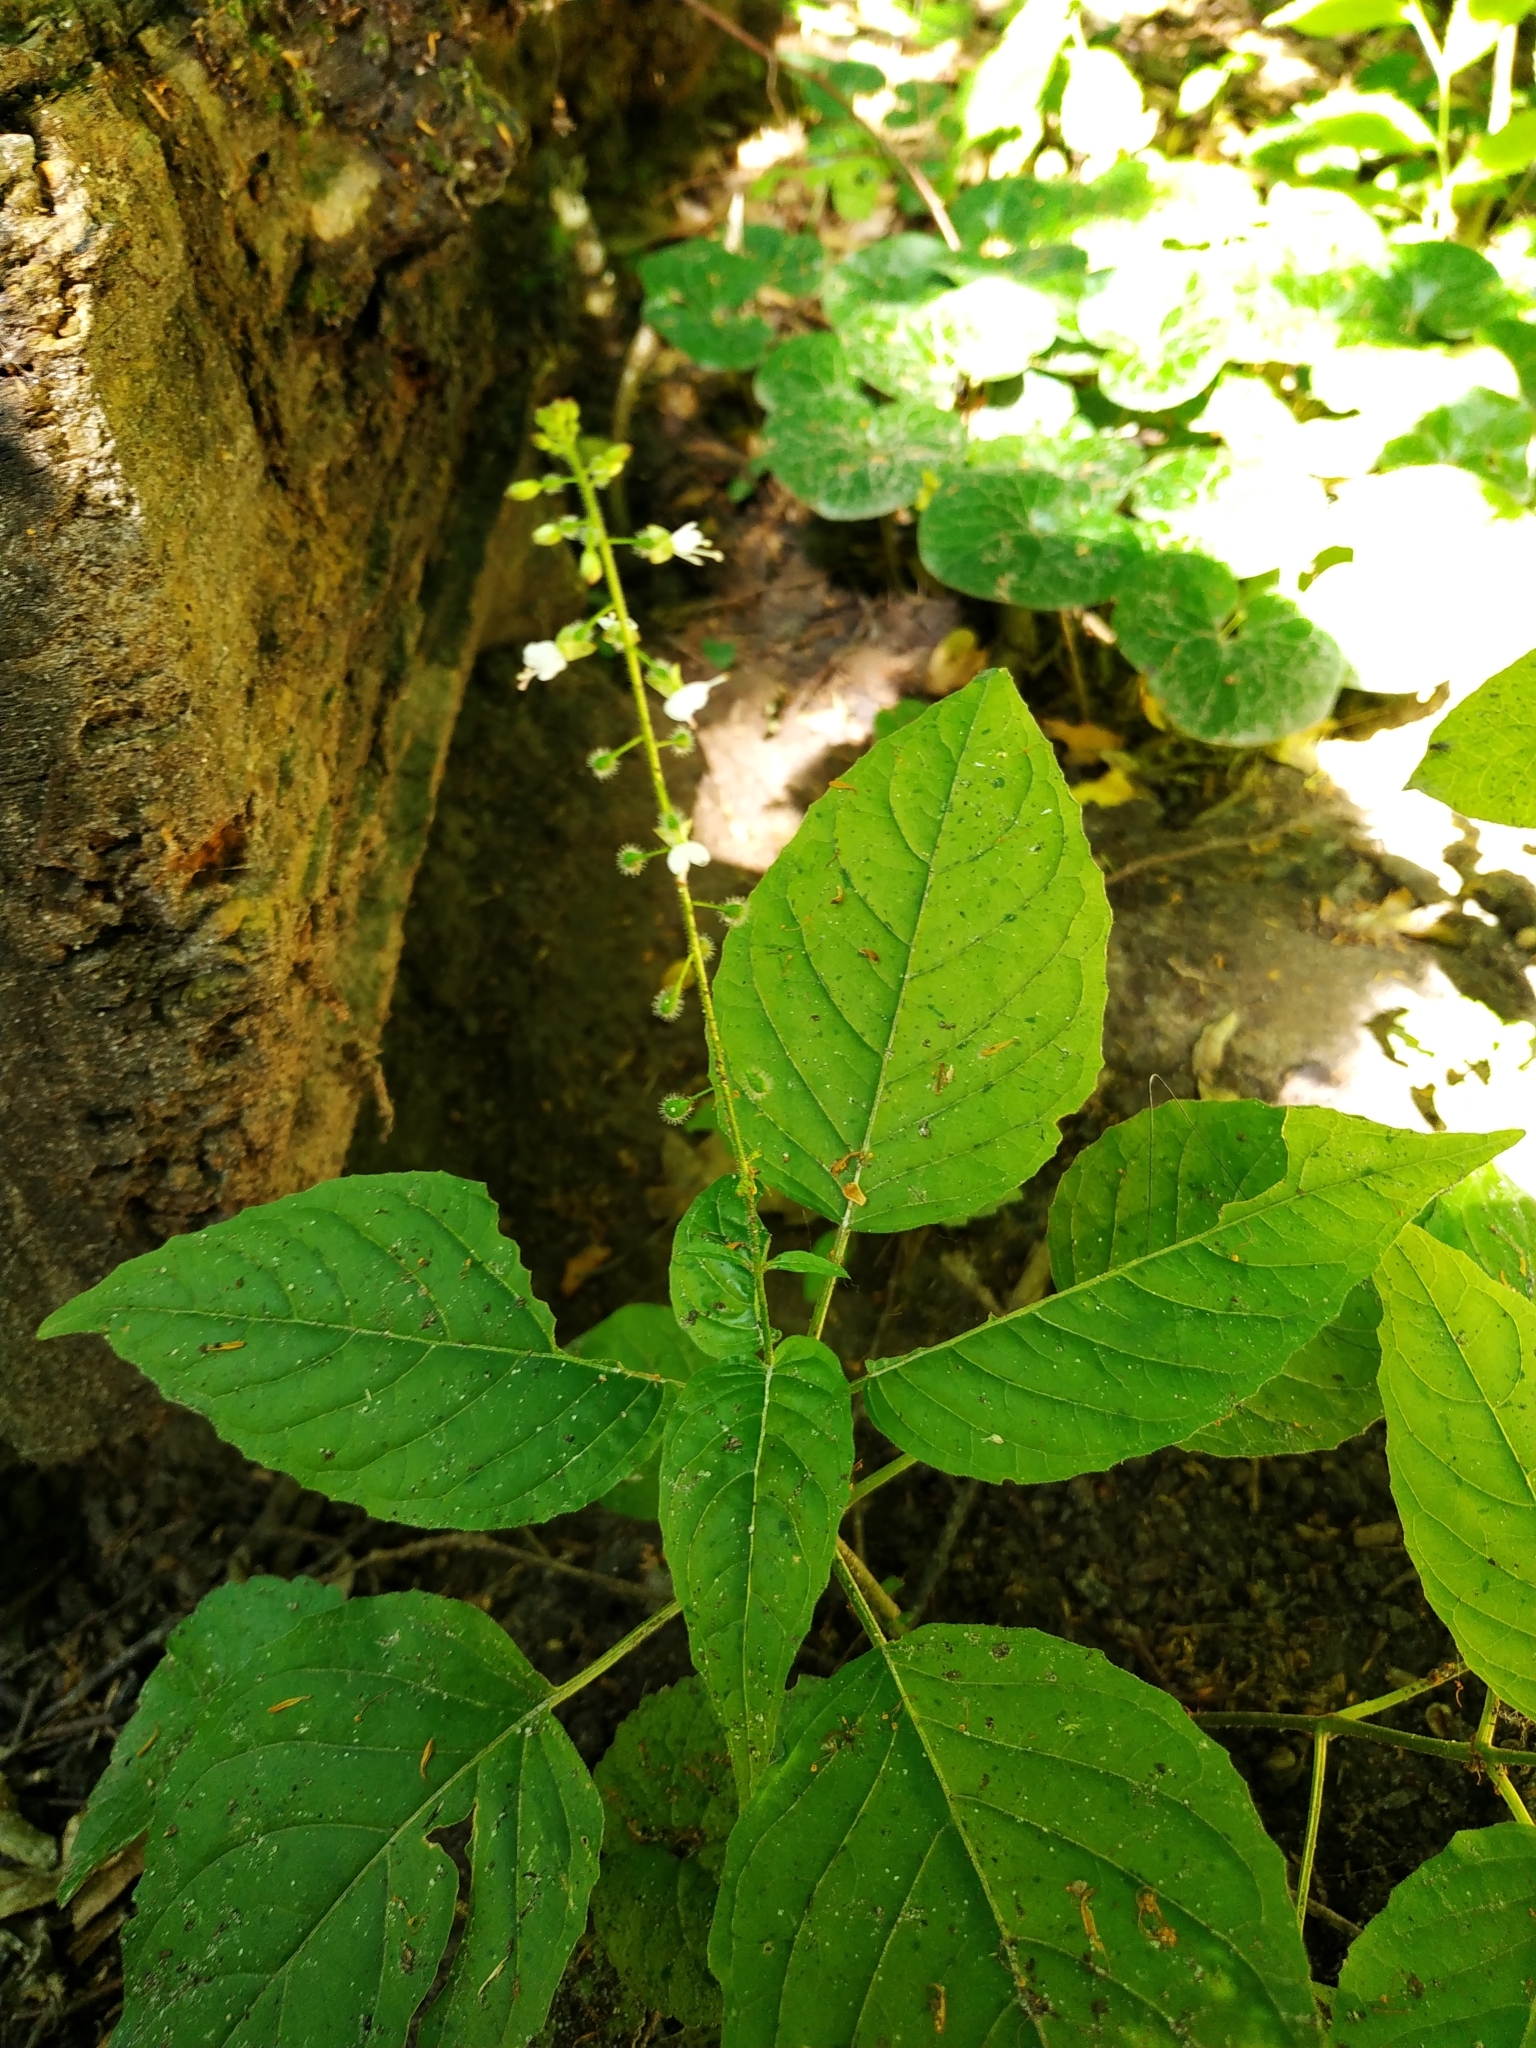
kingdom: Plantae
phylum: Tracheophyta
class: Magnoliopsida
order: Myrtales
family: Onagraceae
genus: Circaea
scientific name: Circaea lutetiana
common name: Enchanter's-nightshade
